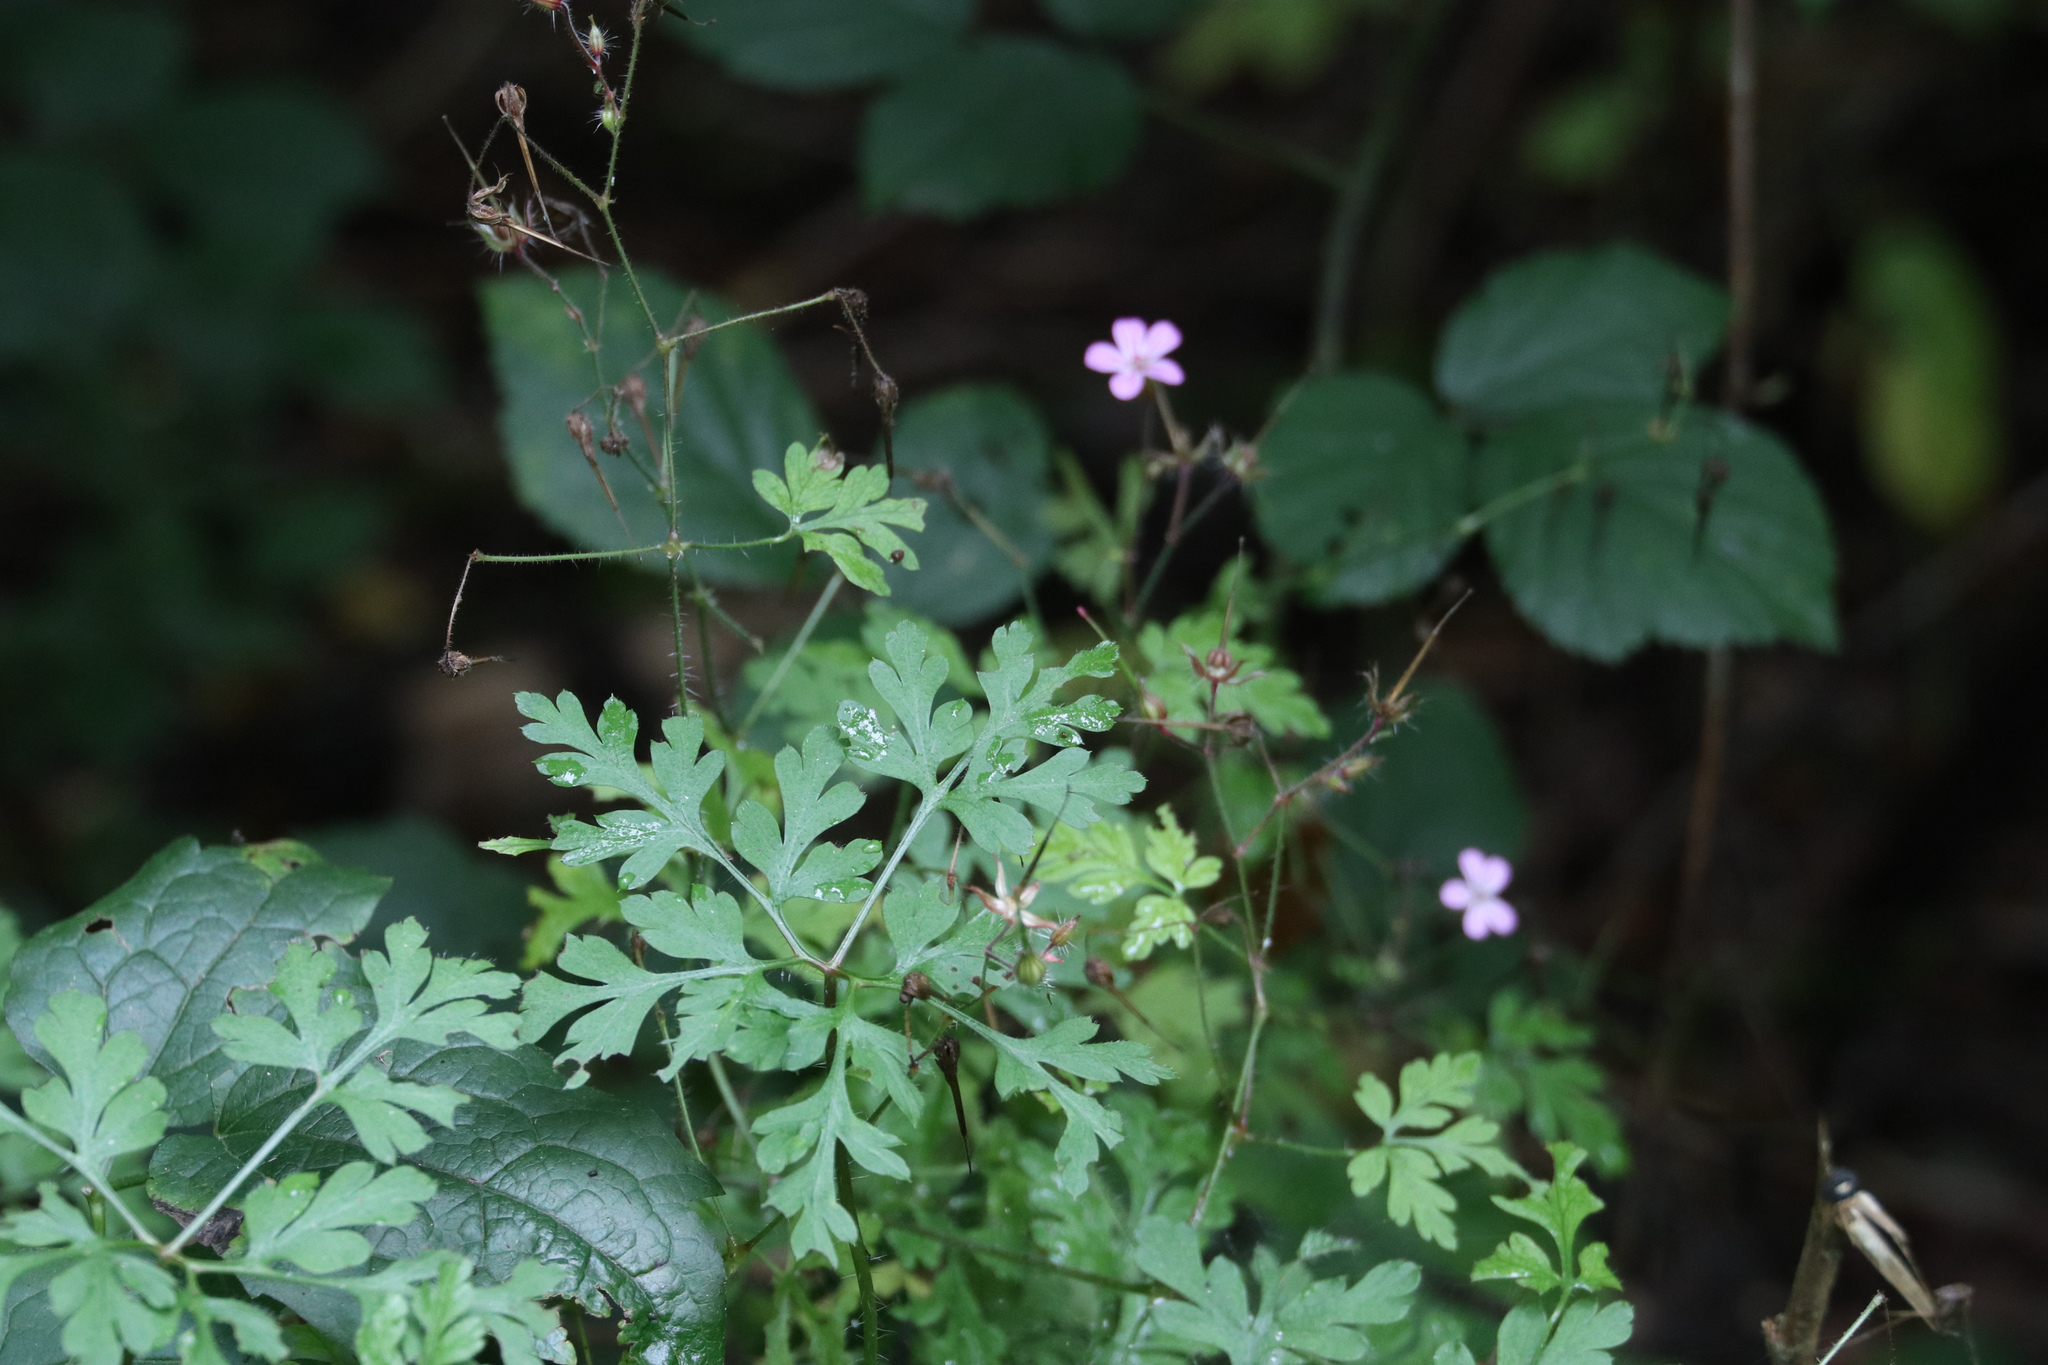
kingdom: Plantae
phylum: Tracheophyta
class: Magnoliopsida
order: Geraniales
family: Geraniaceae
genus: Geranium
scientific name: Geranium robertianum
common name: Herb-robert
